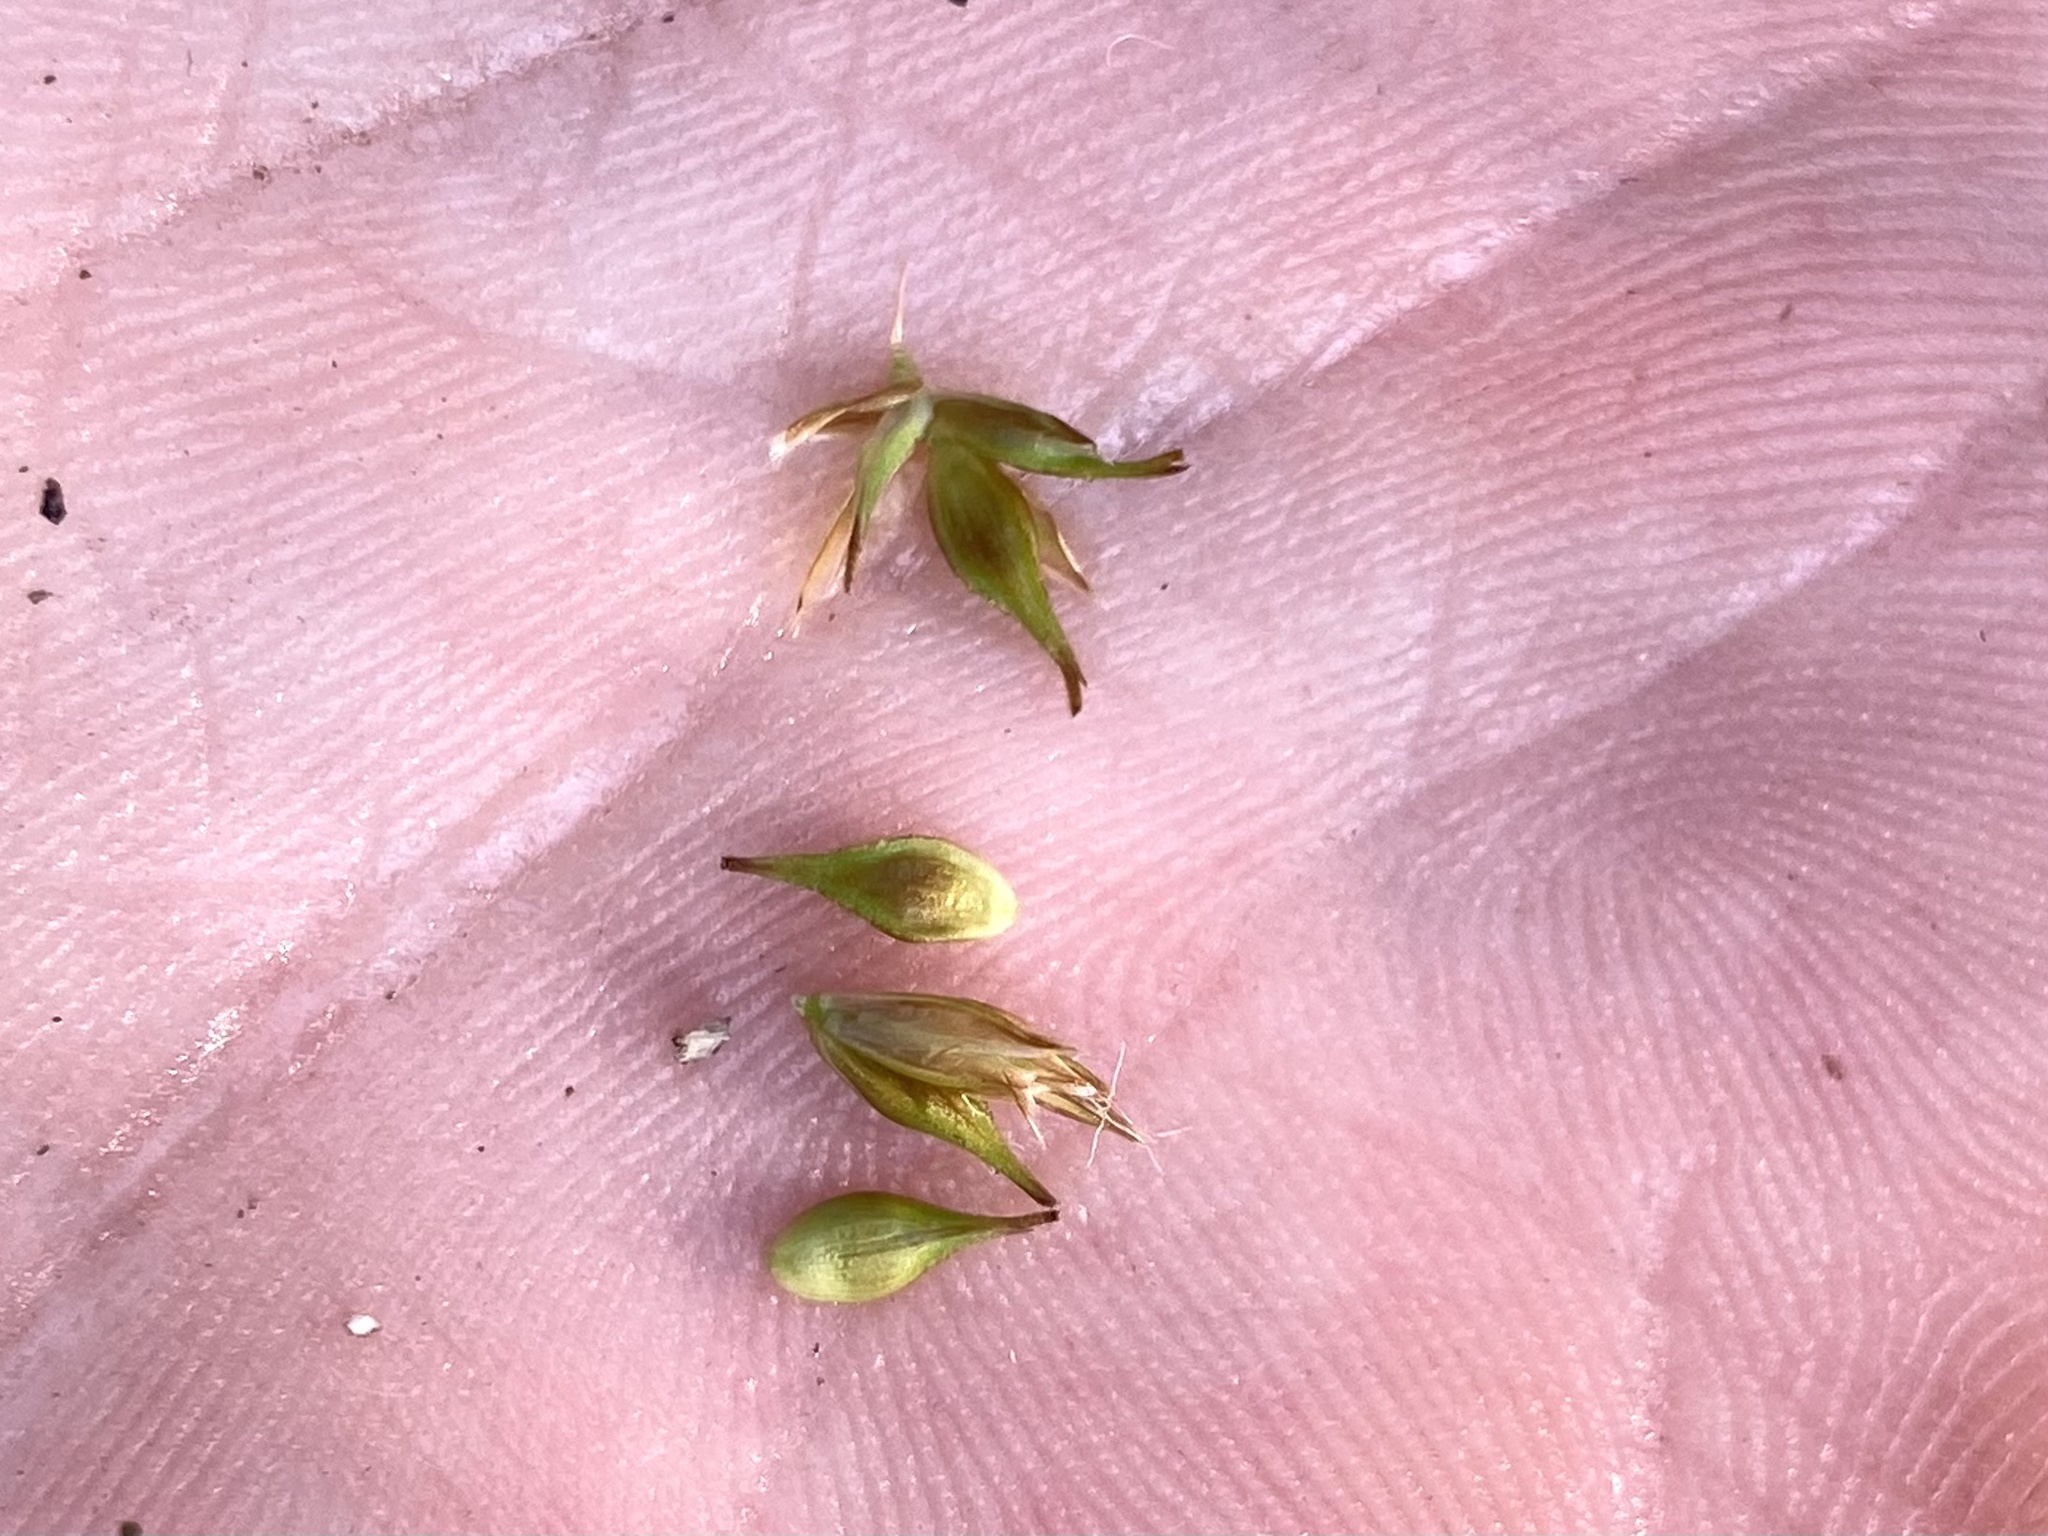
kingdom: Plantae
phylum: Tracheophyta
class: Liliopsida
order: Poales
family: Cyperaceae
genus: Carex
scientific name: Carex siccata
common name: Dry sedge
